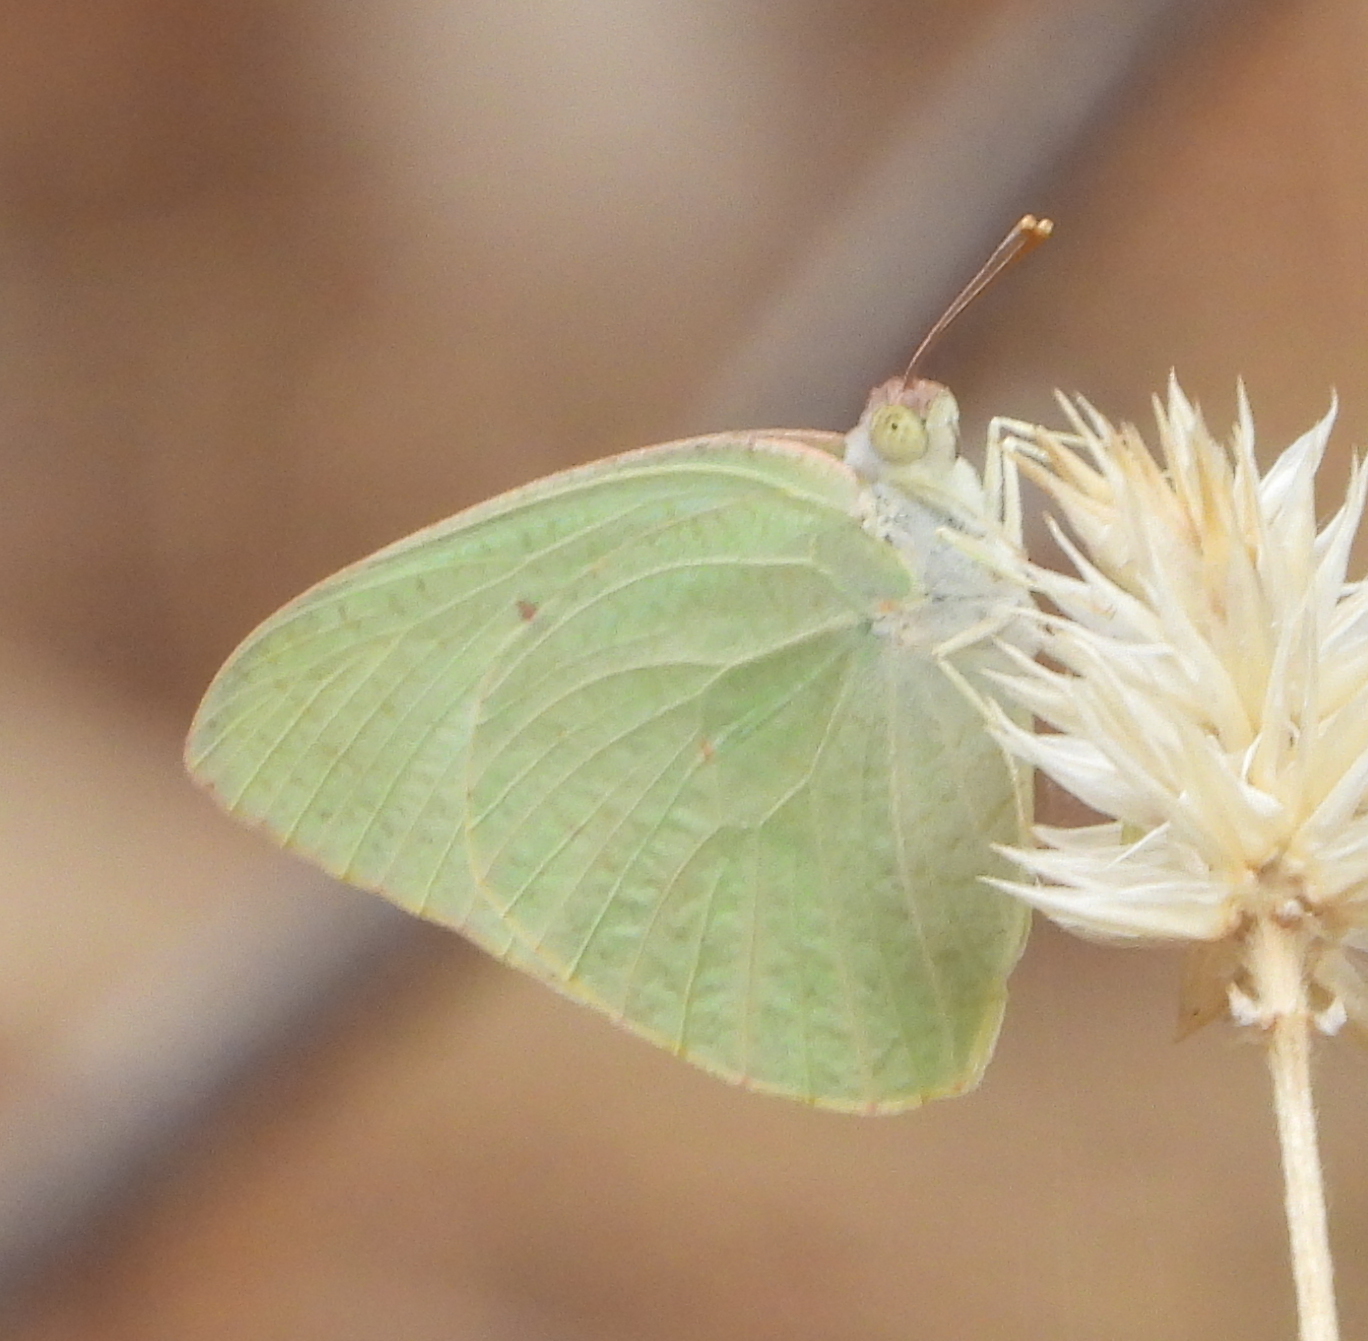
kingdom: Animalia
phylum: Arthropoda
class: Insecta
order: Lepidoptera
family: Pieridae
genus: Catopsilia
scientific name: Catopsilia florella
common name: African migrant
